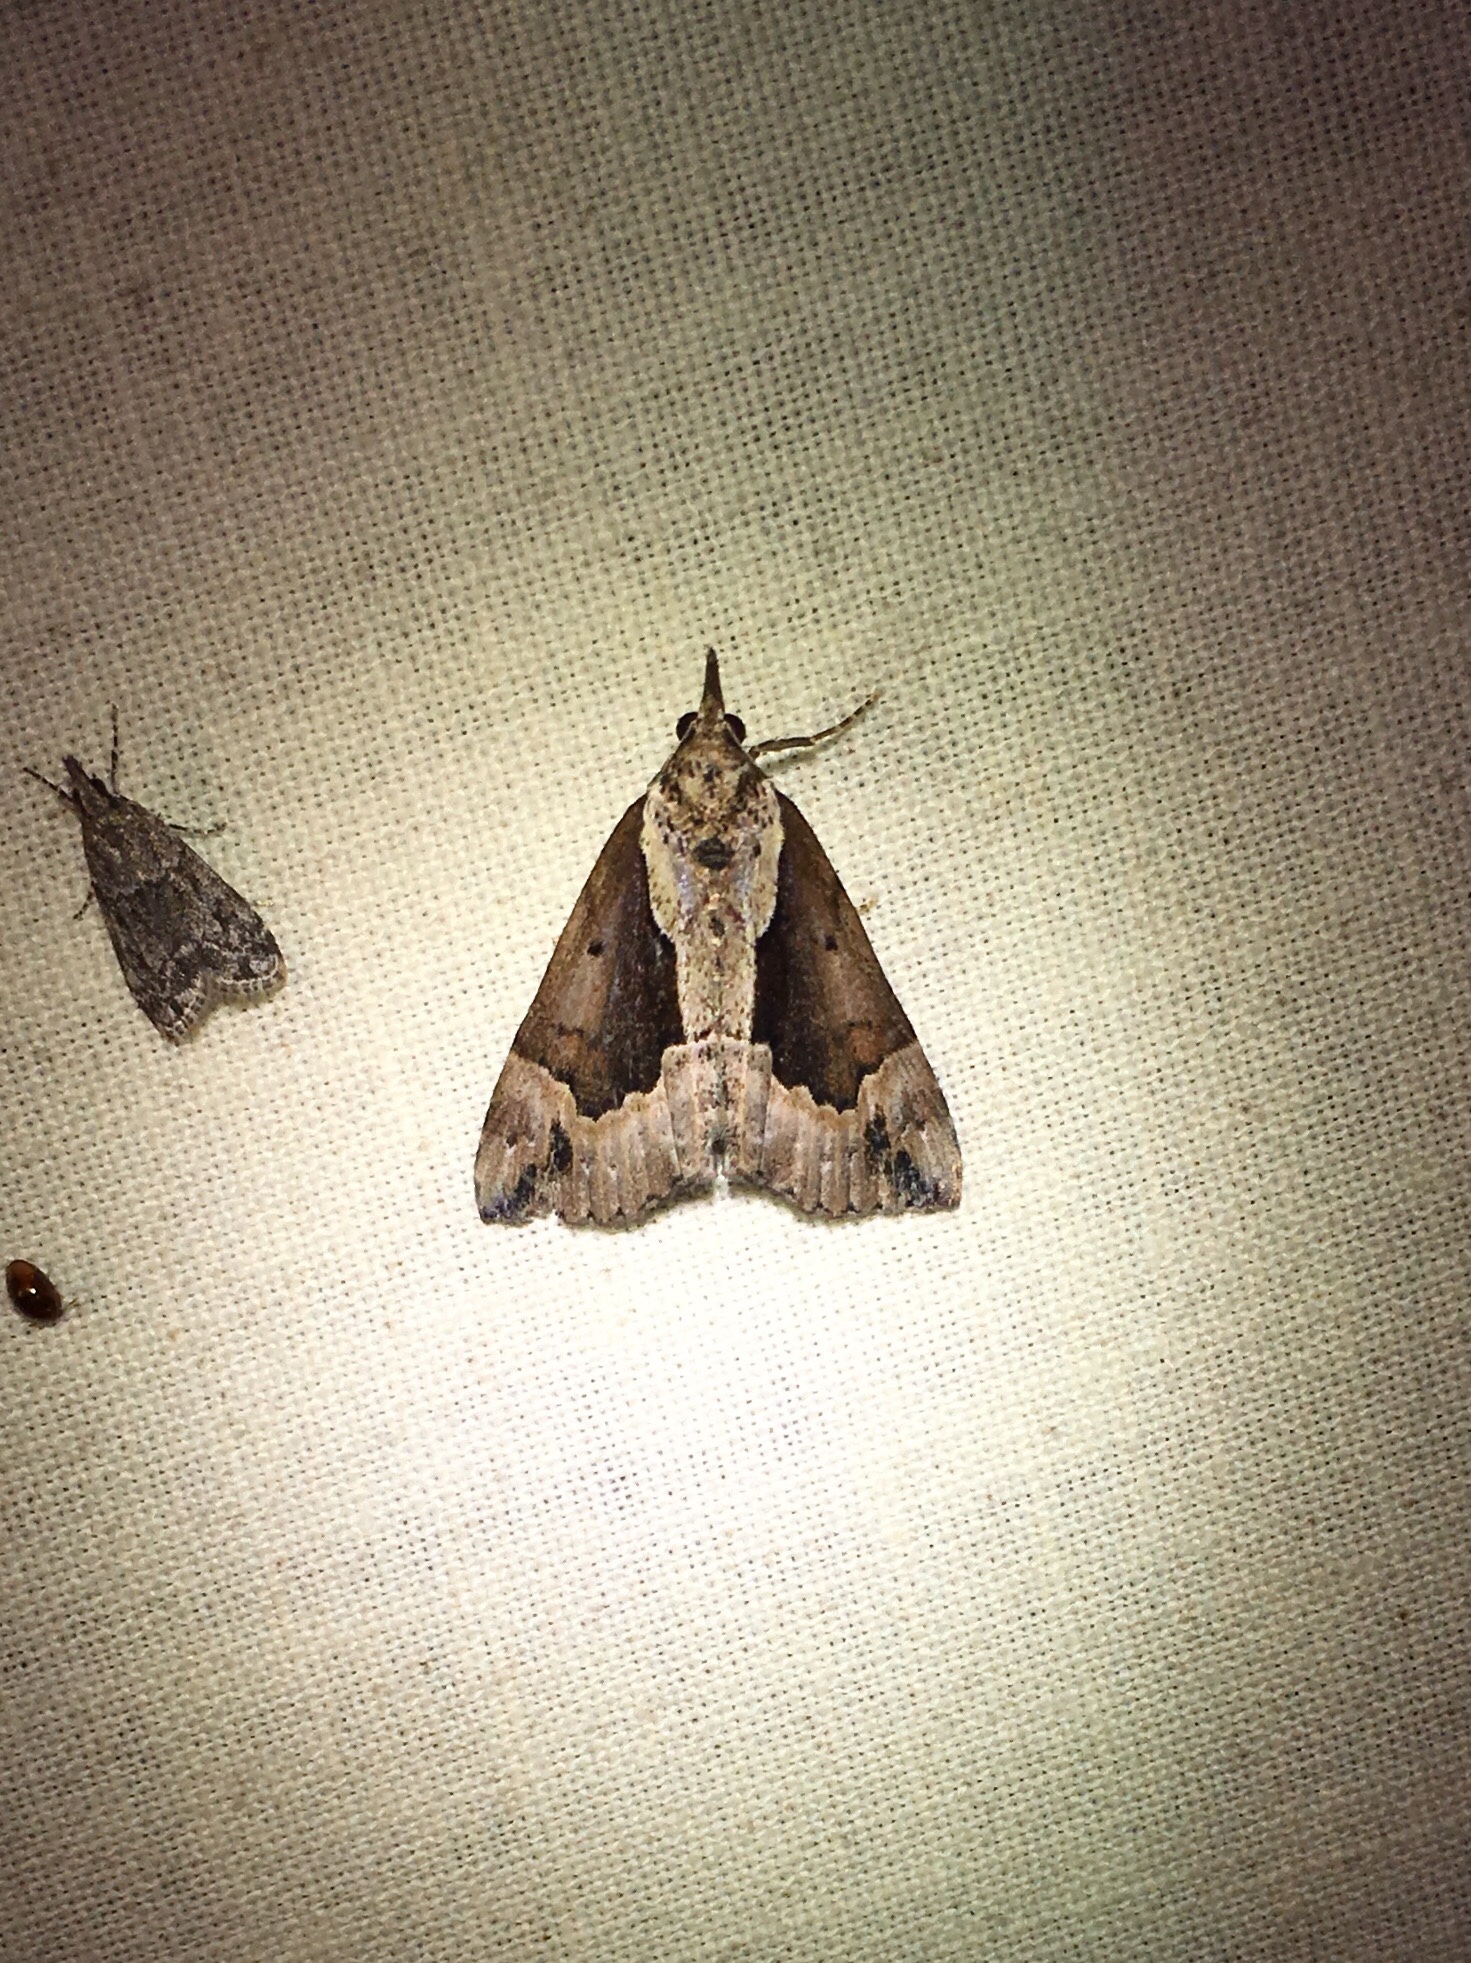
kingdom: Animalia
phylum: Arthropoda
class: Insecta
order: Lepidoptera
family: Erebidae
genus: Hypena
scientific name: Hypena baltimoralis
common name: Baltimore snout
